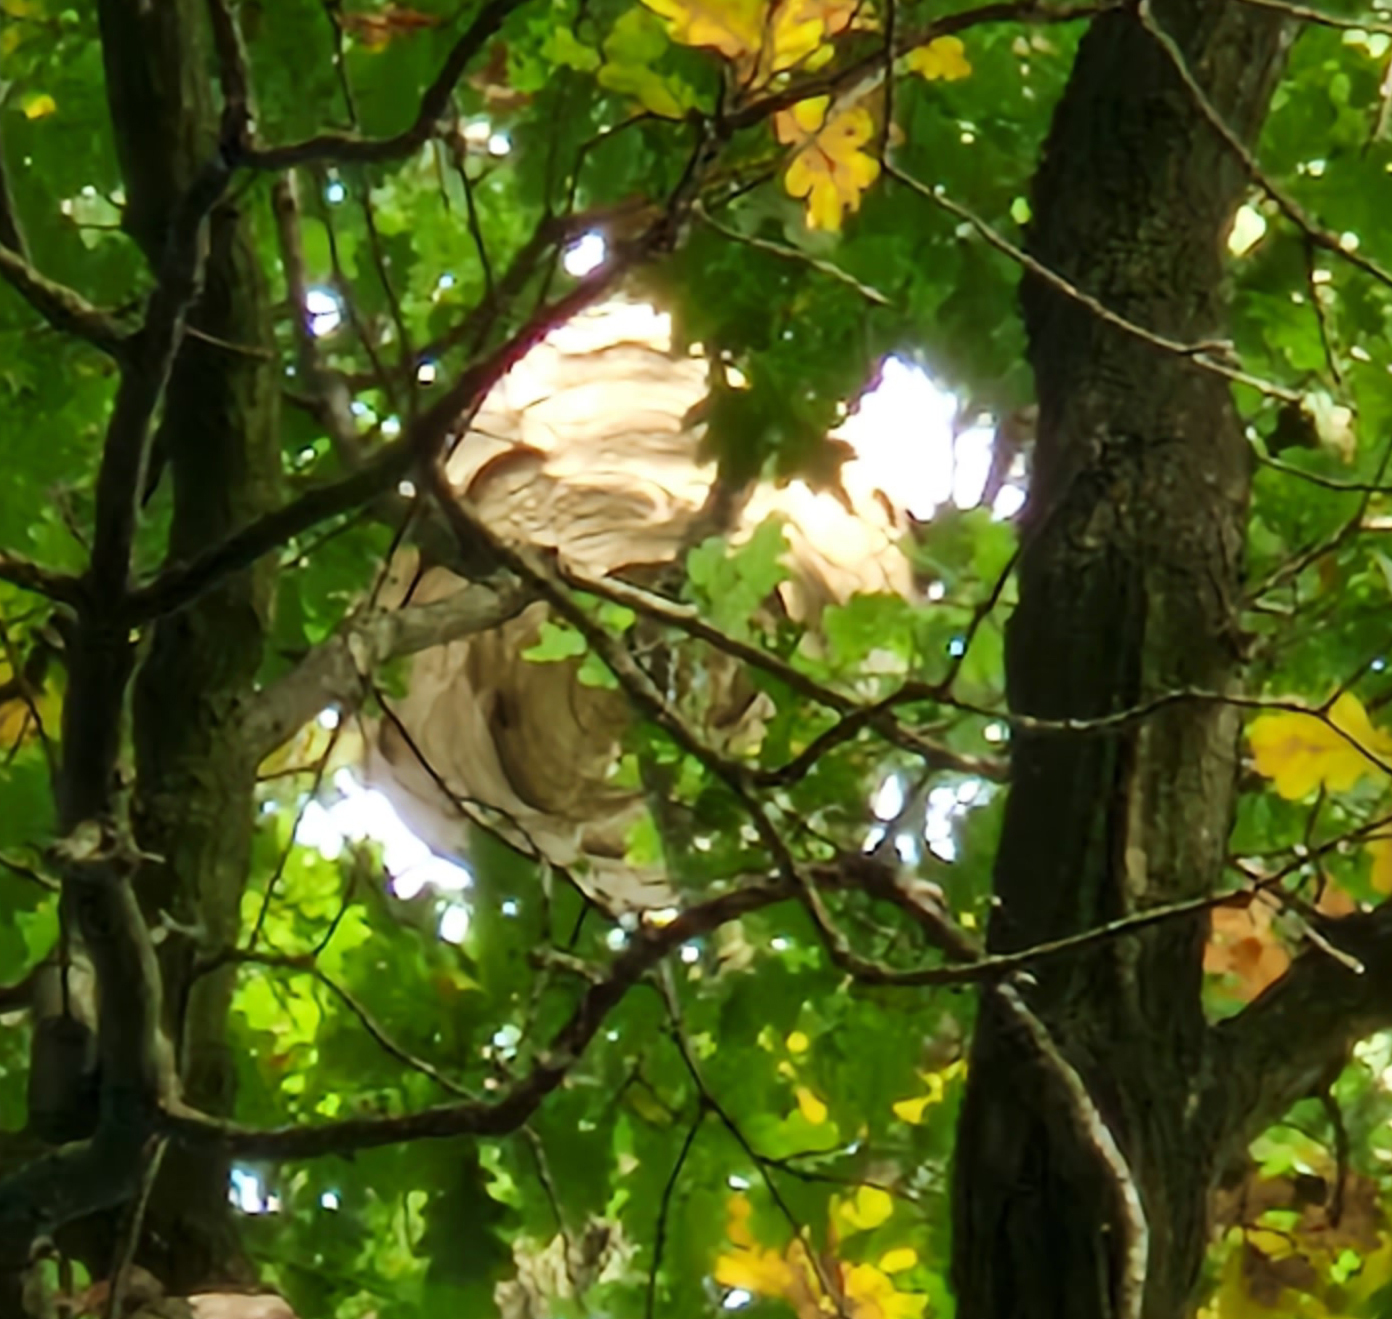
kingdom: Animalia
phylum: Arthropoda
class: Insecta
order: Hymenoptera
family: Vespidae
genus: Vespa
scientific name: Vespa velutina
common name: Asian hornet
